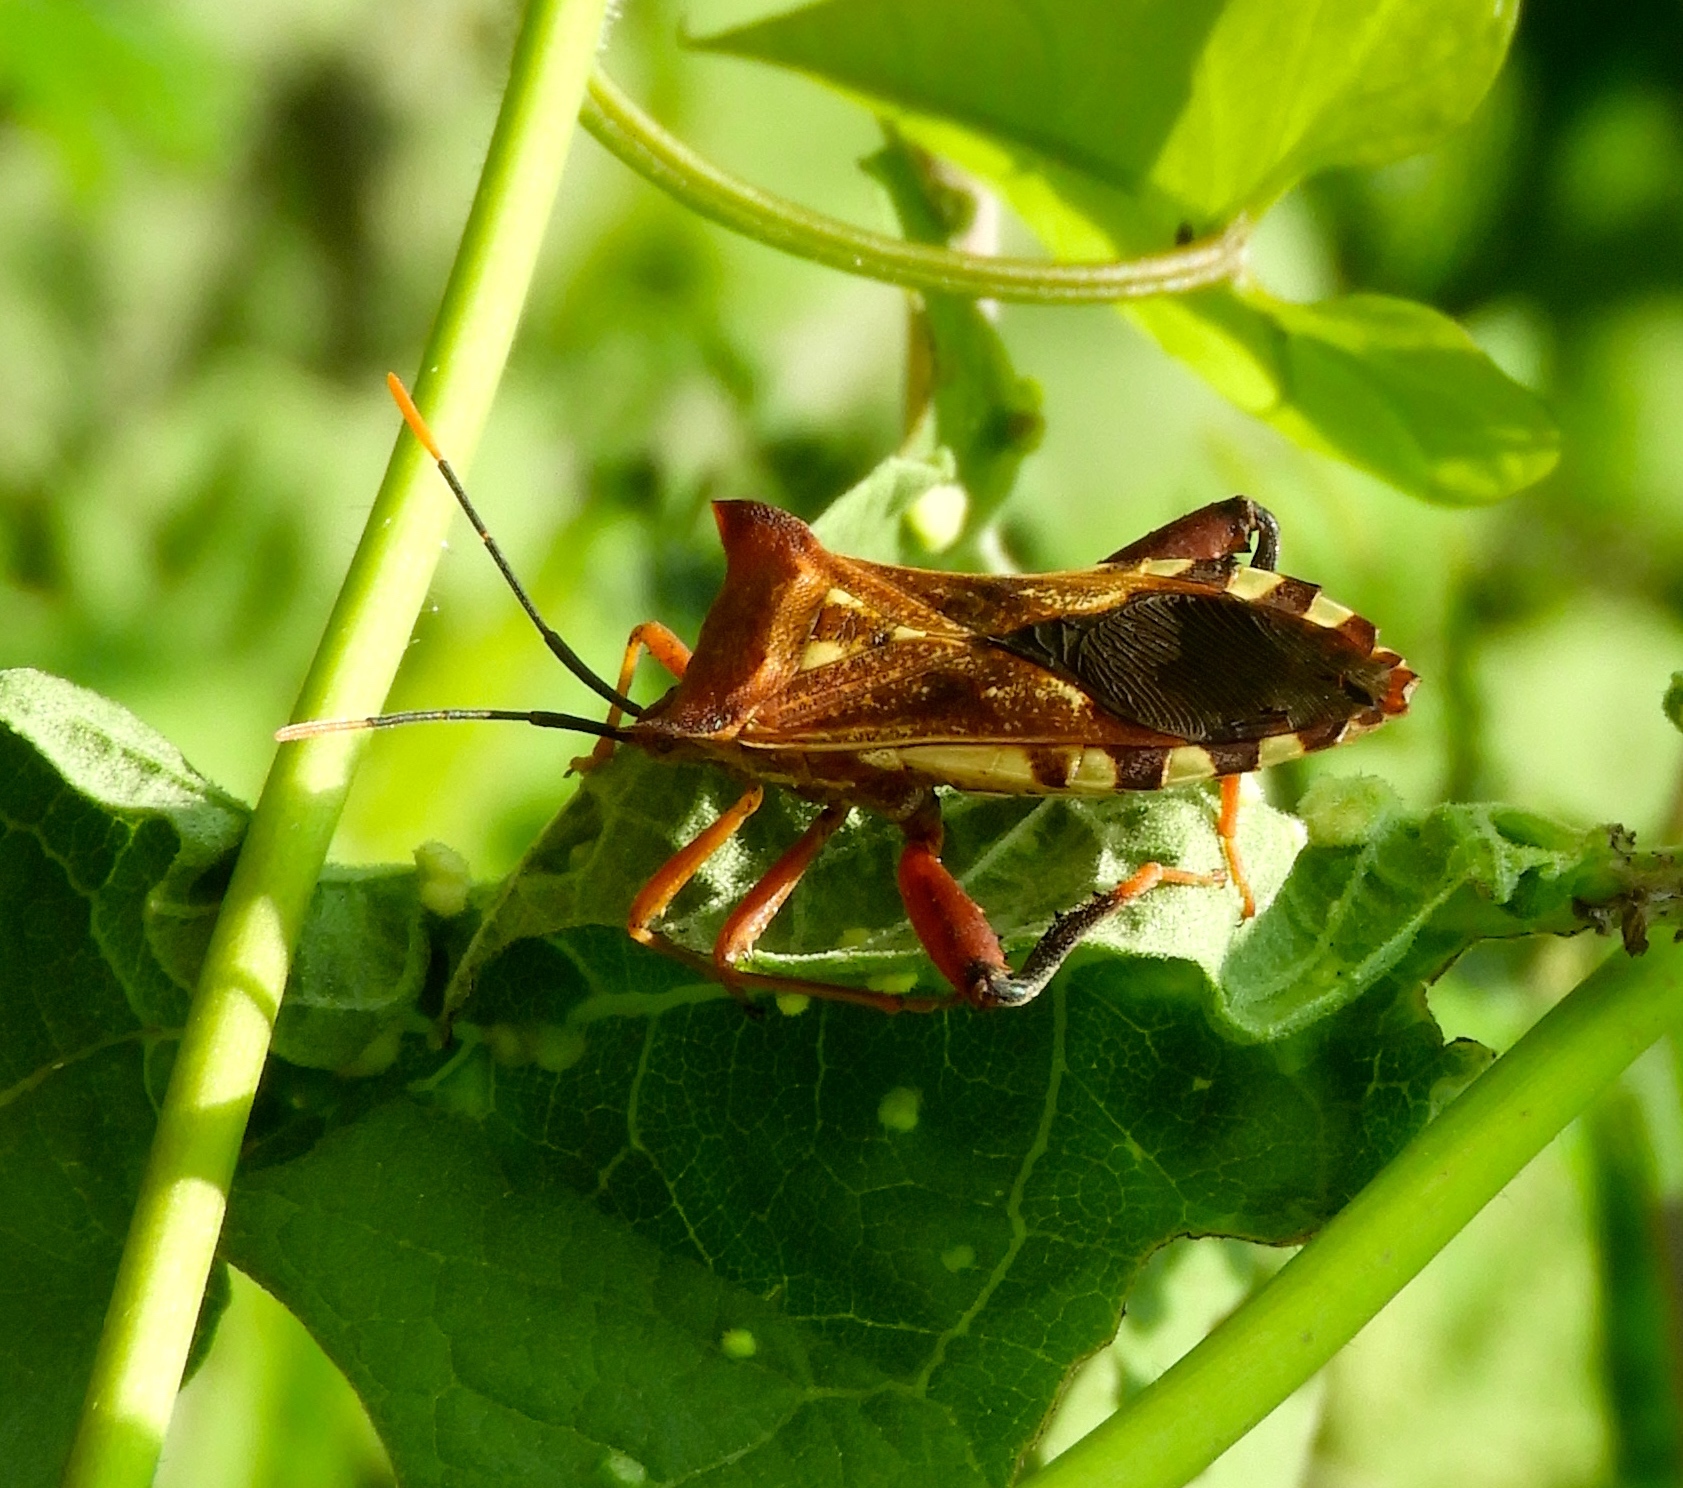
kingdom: Animalia
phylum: Arthropoda
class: Insecta
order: Hemiptera
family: Coreidae
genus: Mozena
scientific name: Mozena
